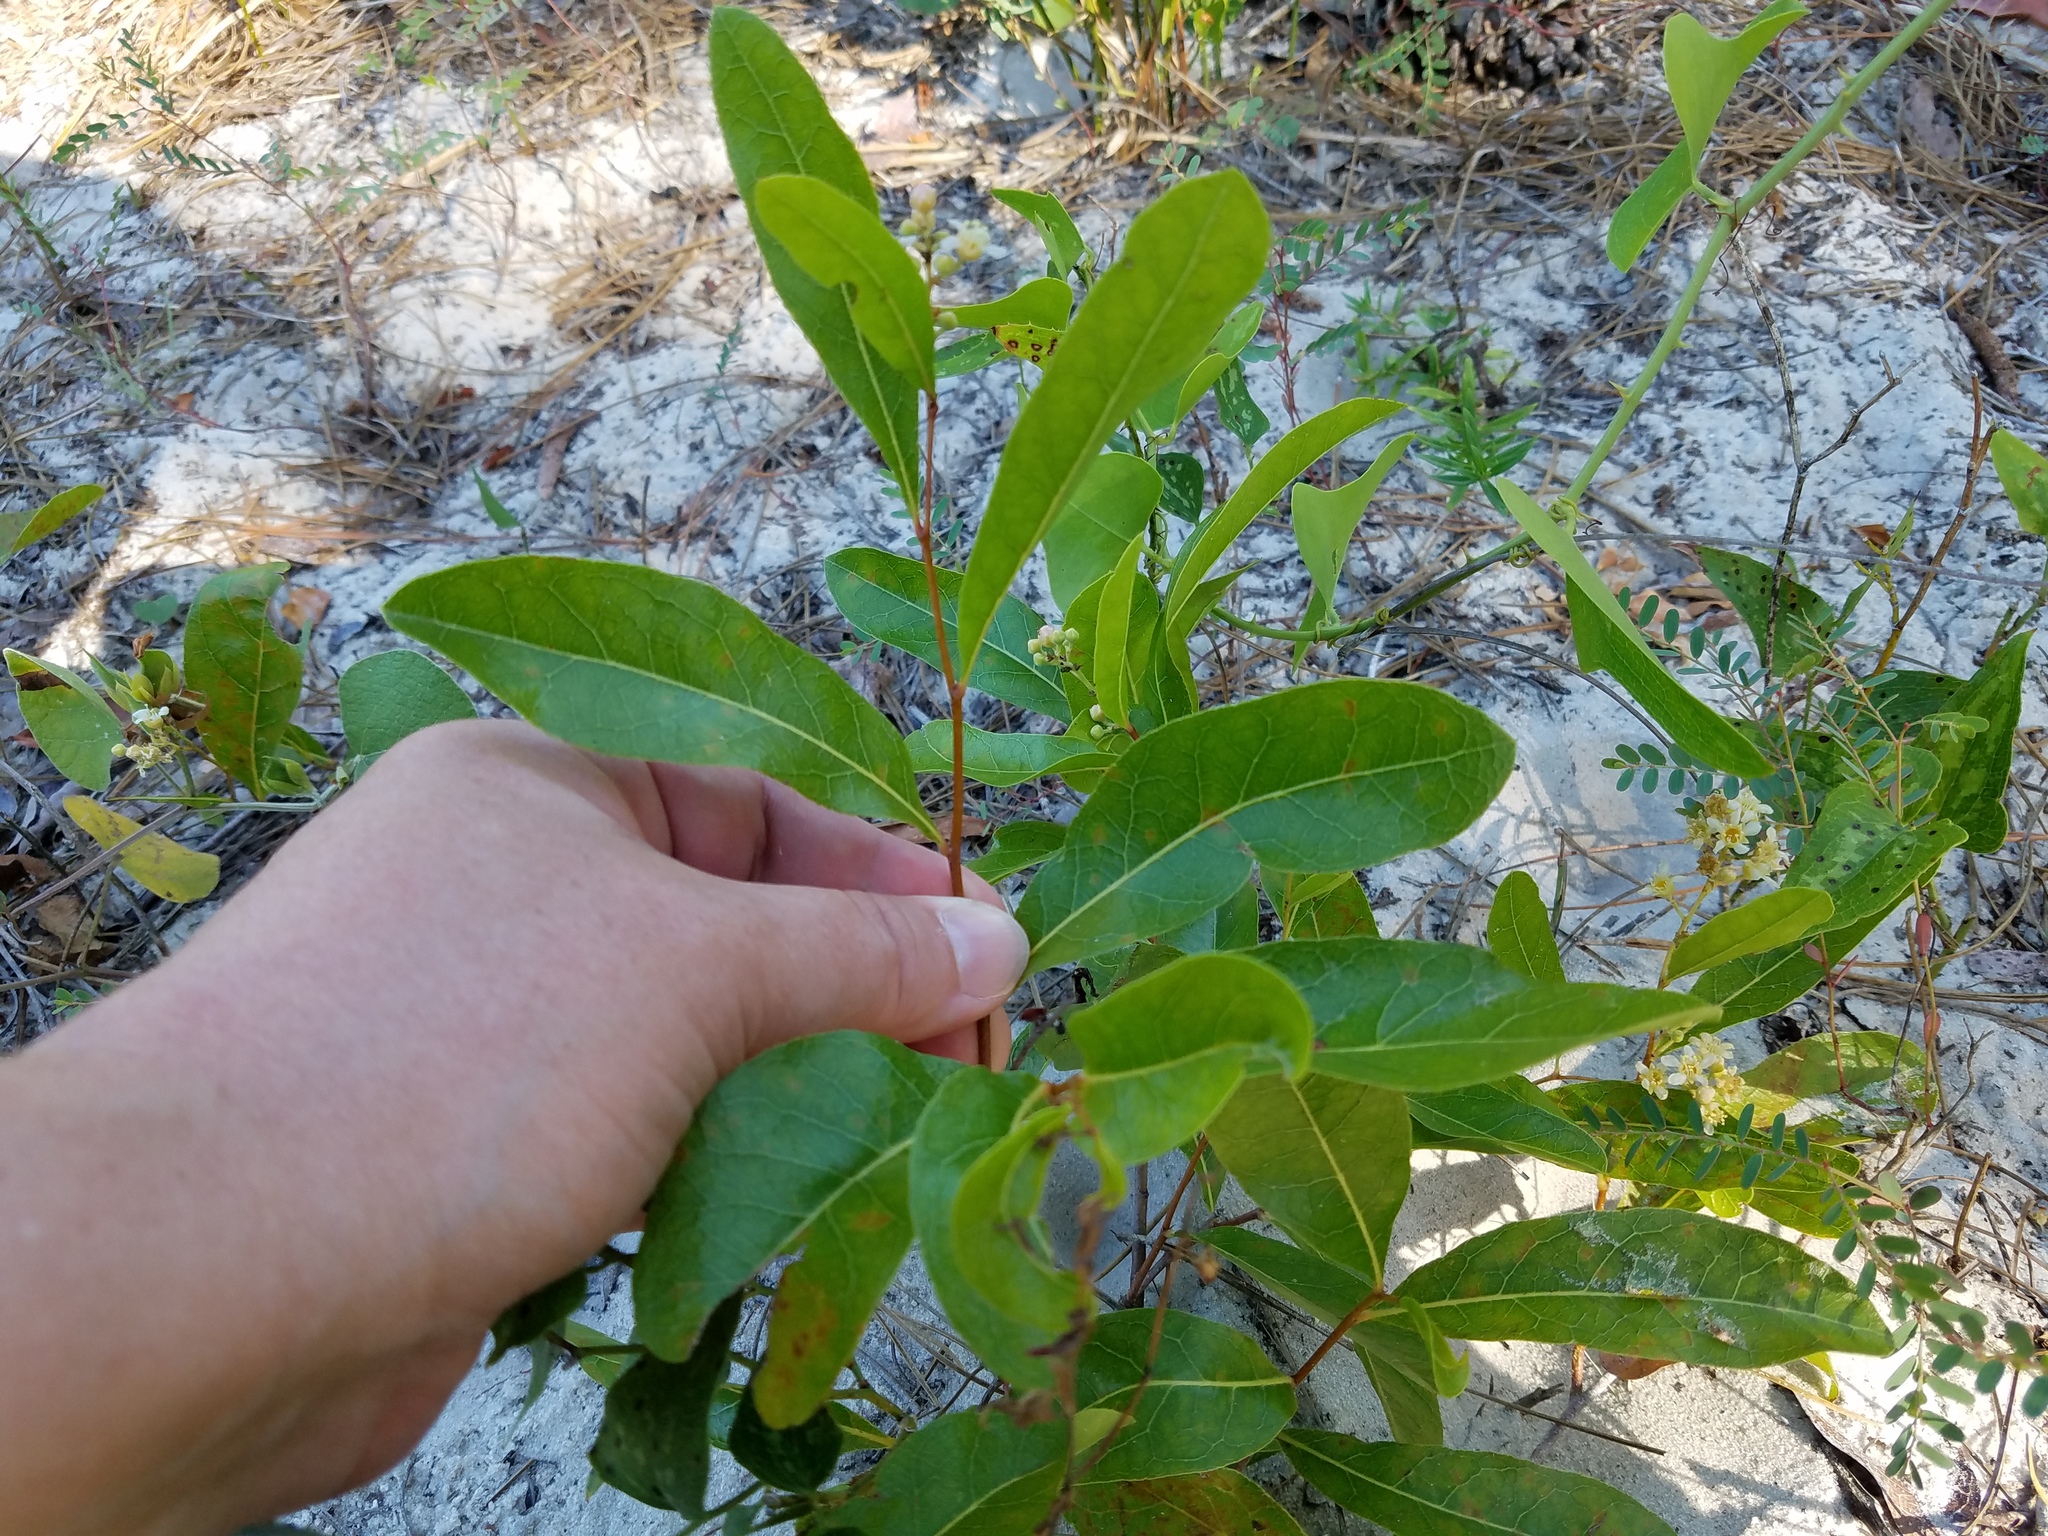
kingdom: Plantae
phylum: Tracheophyta
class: Magnoliopsida
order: Malpighiales
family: Chrysobalanaceae
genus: Geobalanus
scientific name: Geobalanus oblongifolius
